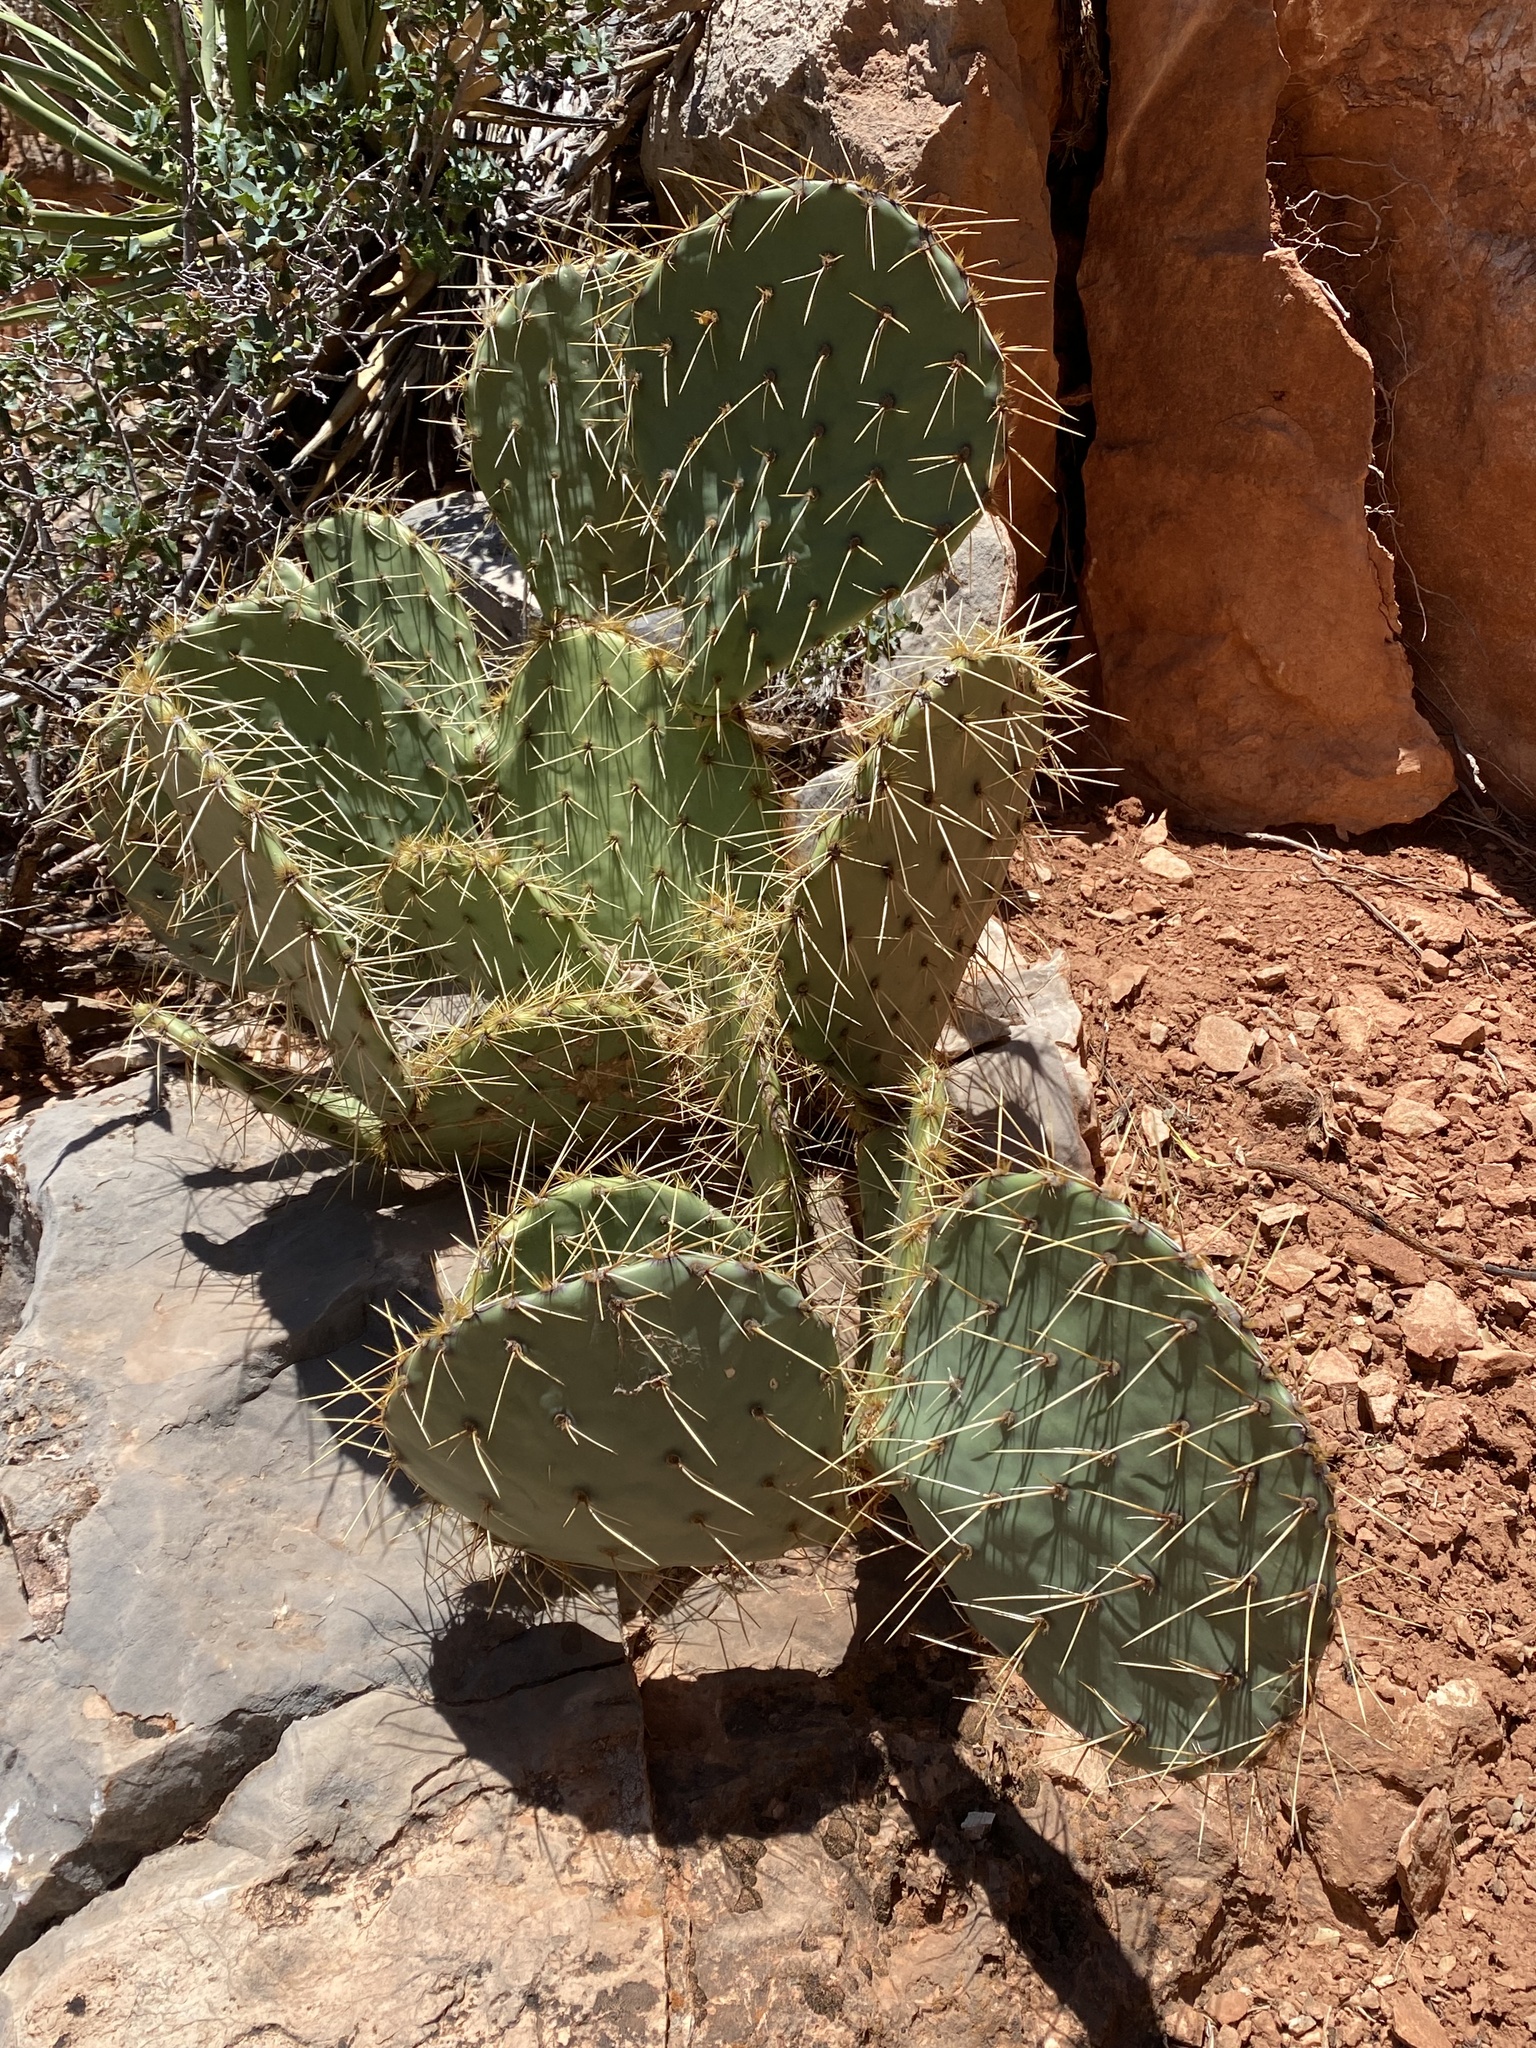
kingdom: Plantae
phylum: Tracheophyta
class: Magnoliopsida
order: Caryophyllales
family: Cactaceae
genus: Opuntia
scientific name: Opuntia engelmannii
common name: Cactus-apple
